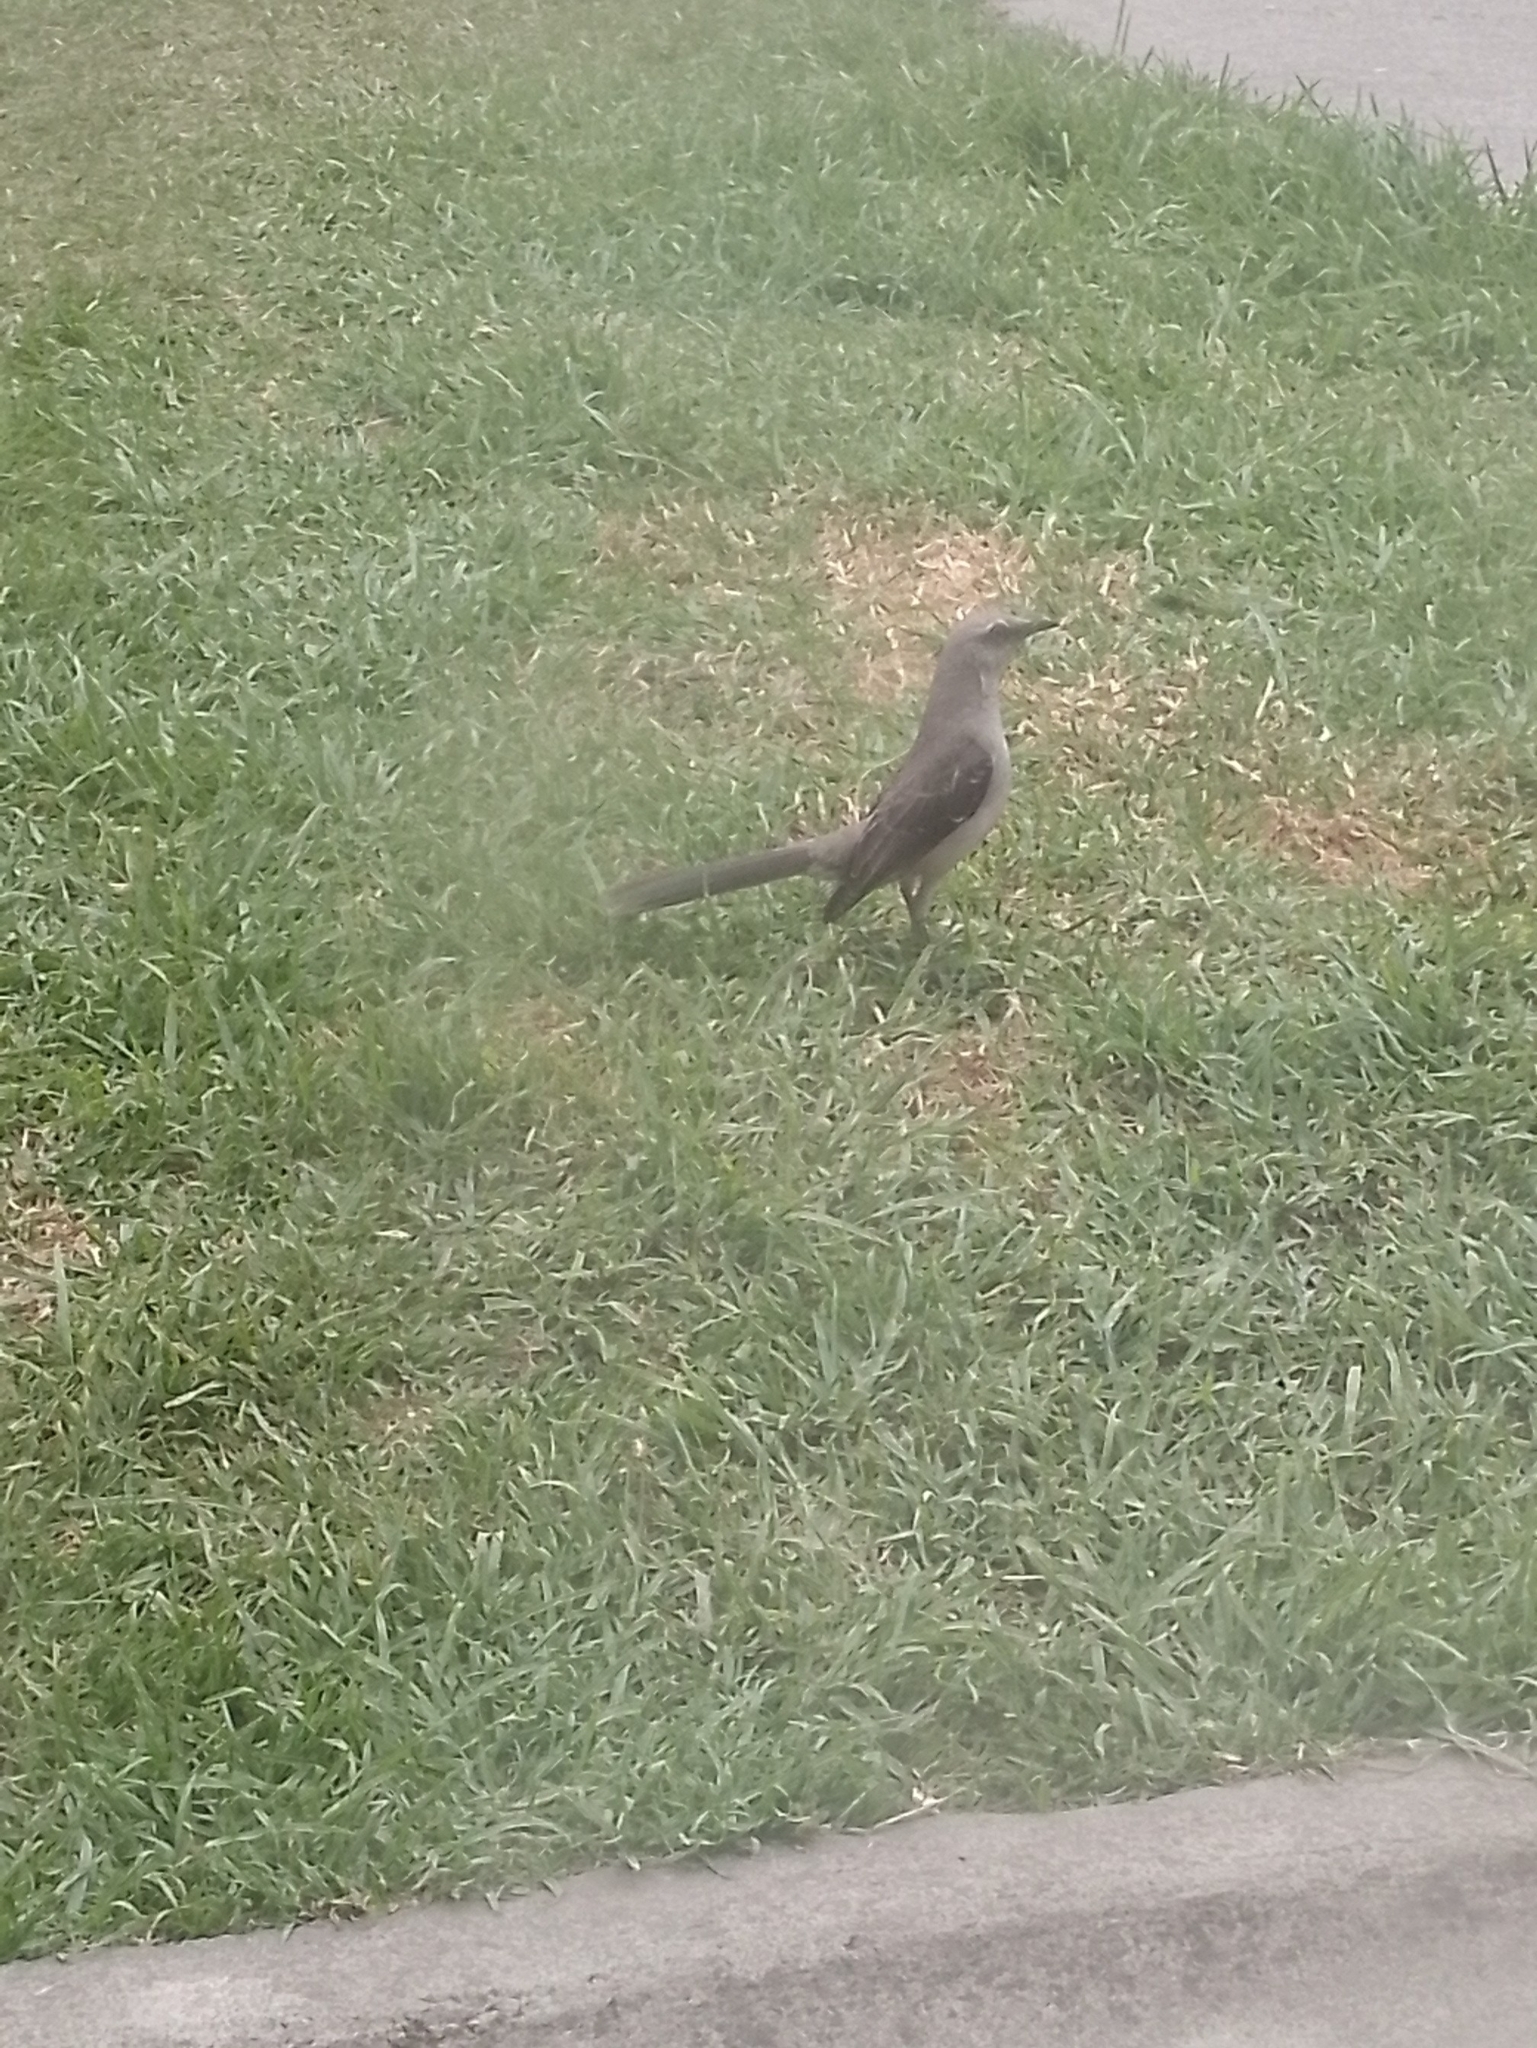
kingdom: Animalia
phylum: Chordata
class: Aves
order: Passeriformes
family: Mimidae
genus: Mimus
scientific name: Mimus gilvus
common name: Tropical mockingbird
